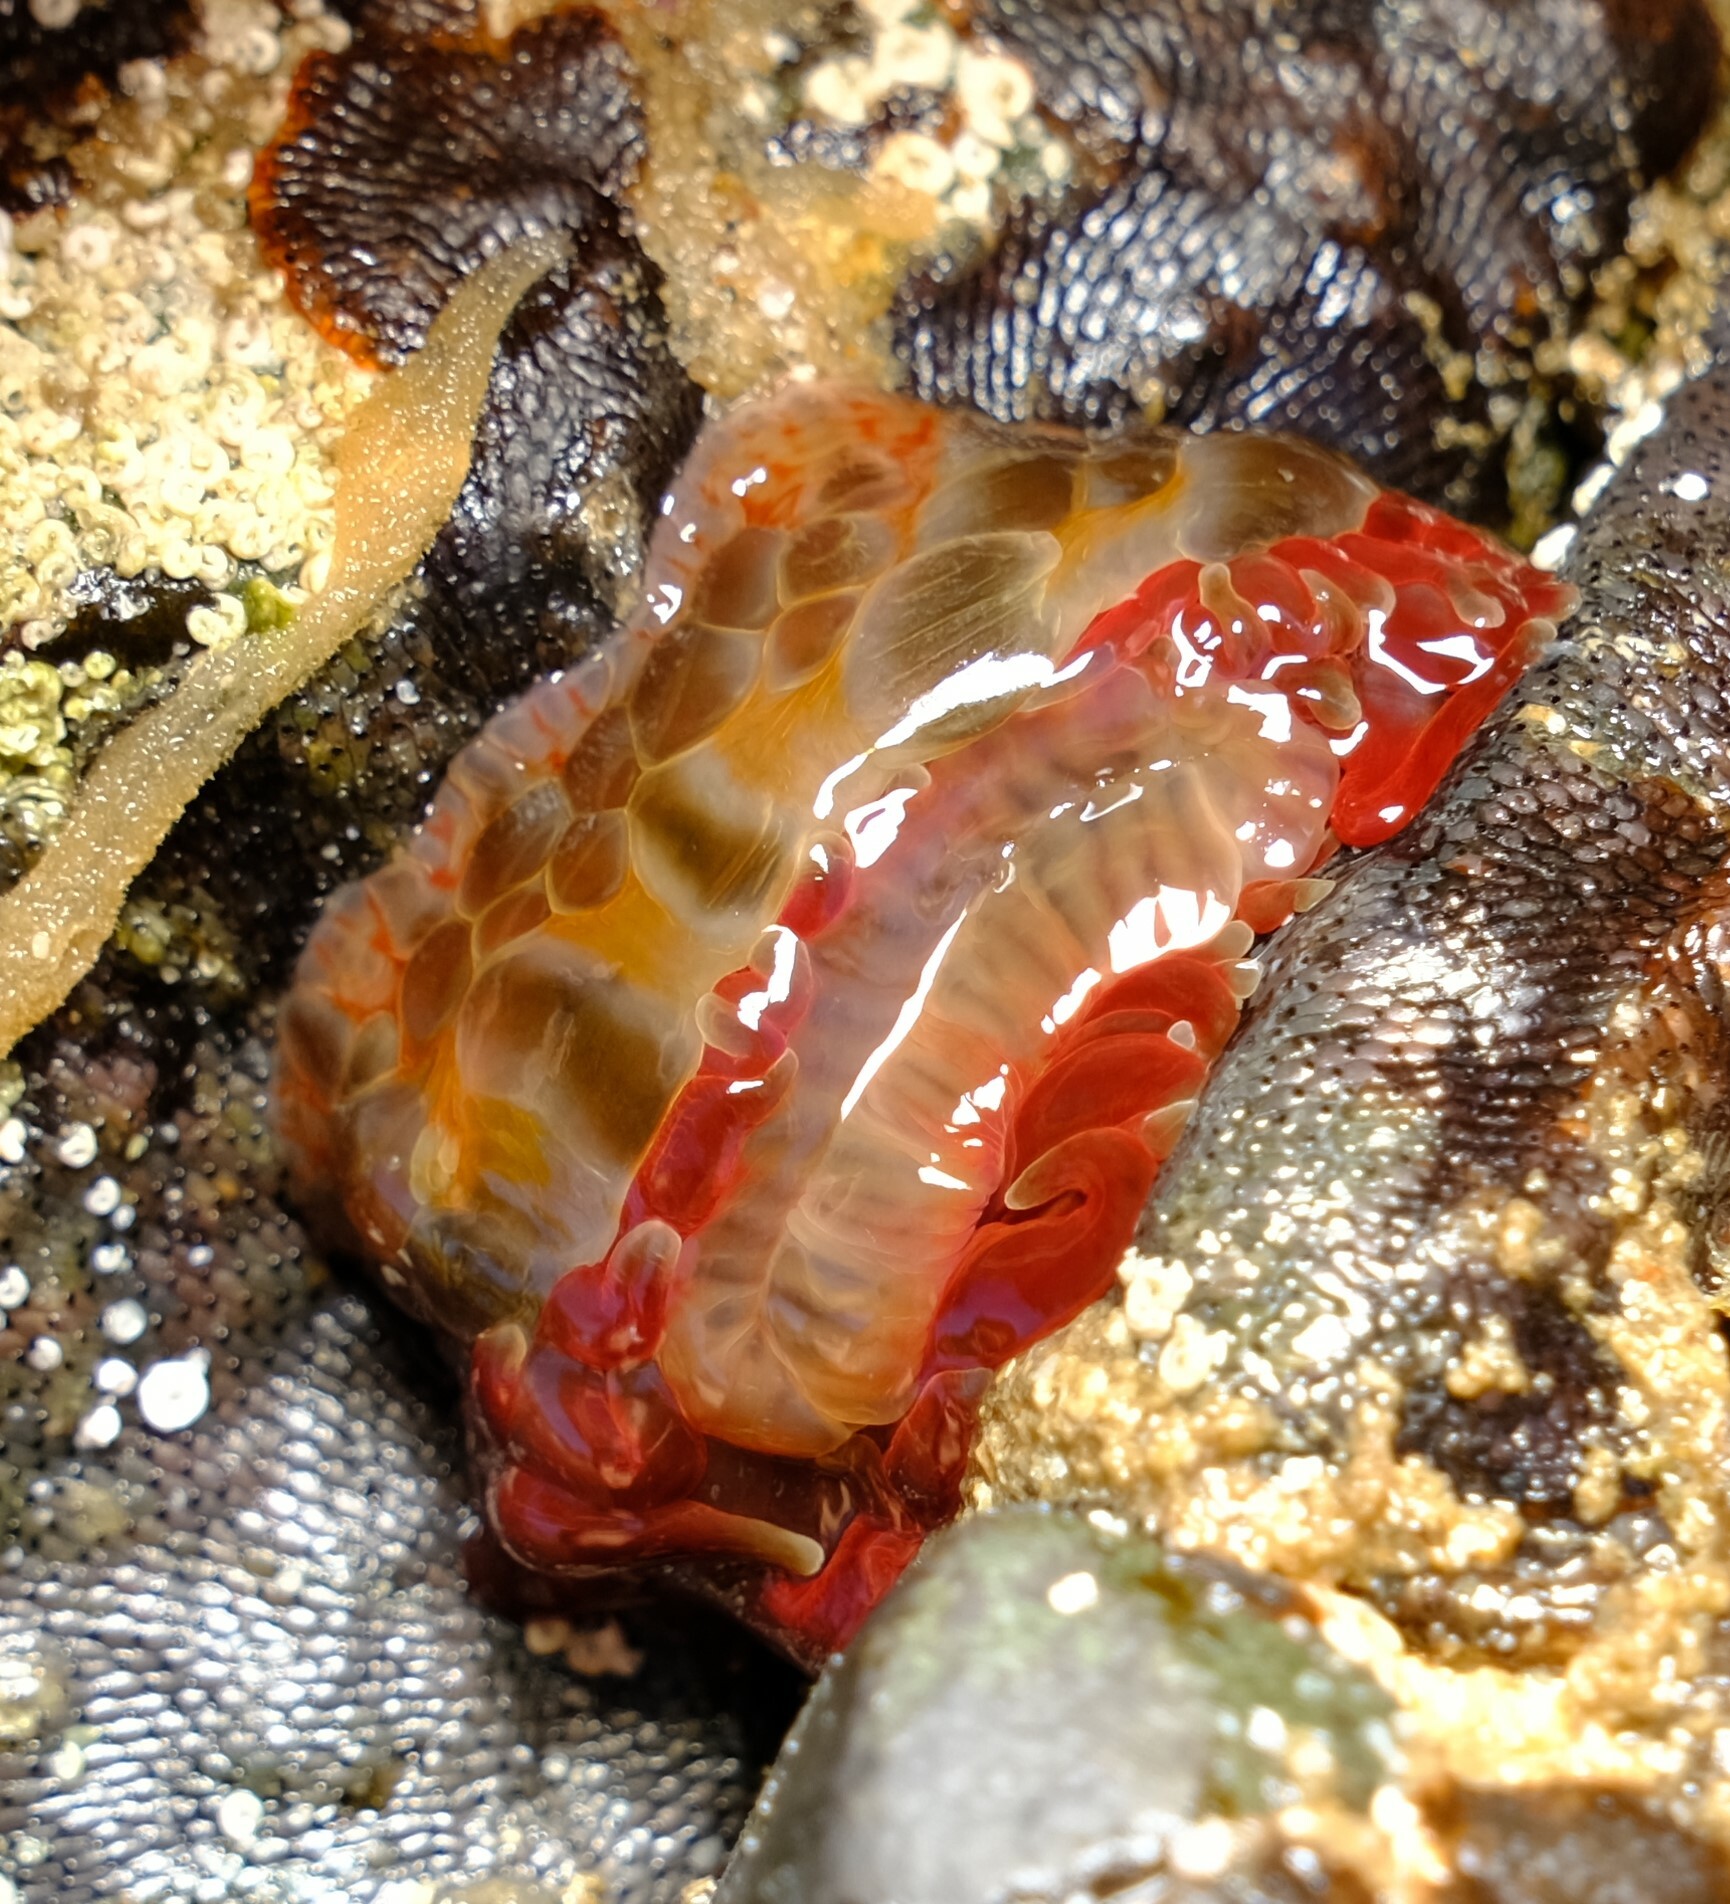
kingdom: Animalia
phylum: Cnidaria
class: Anthozoa
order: Actiniaria
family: Actiniidae
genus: Phlyctenanthus
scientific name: Phlyctenanthus australis
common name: Southern anemone
